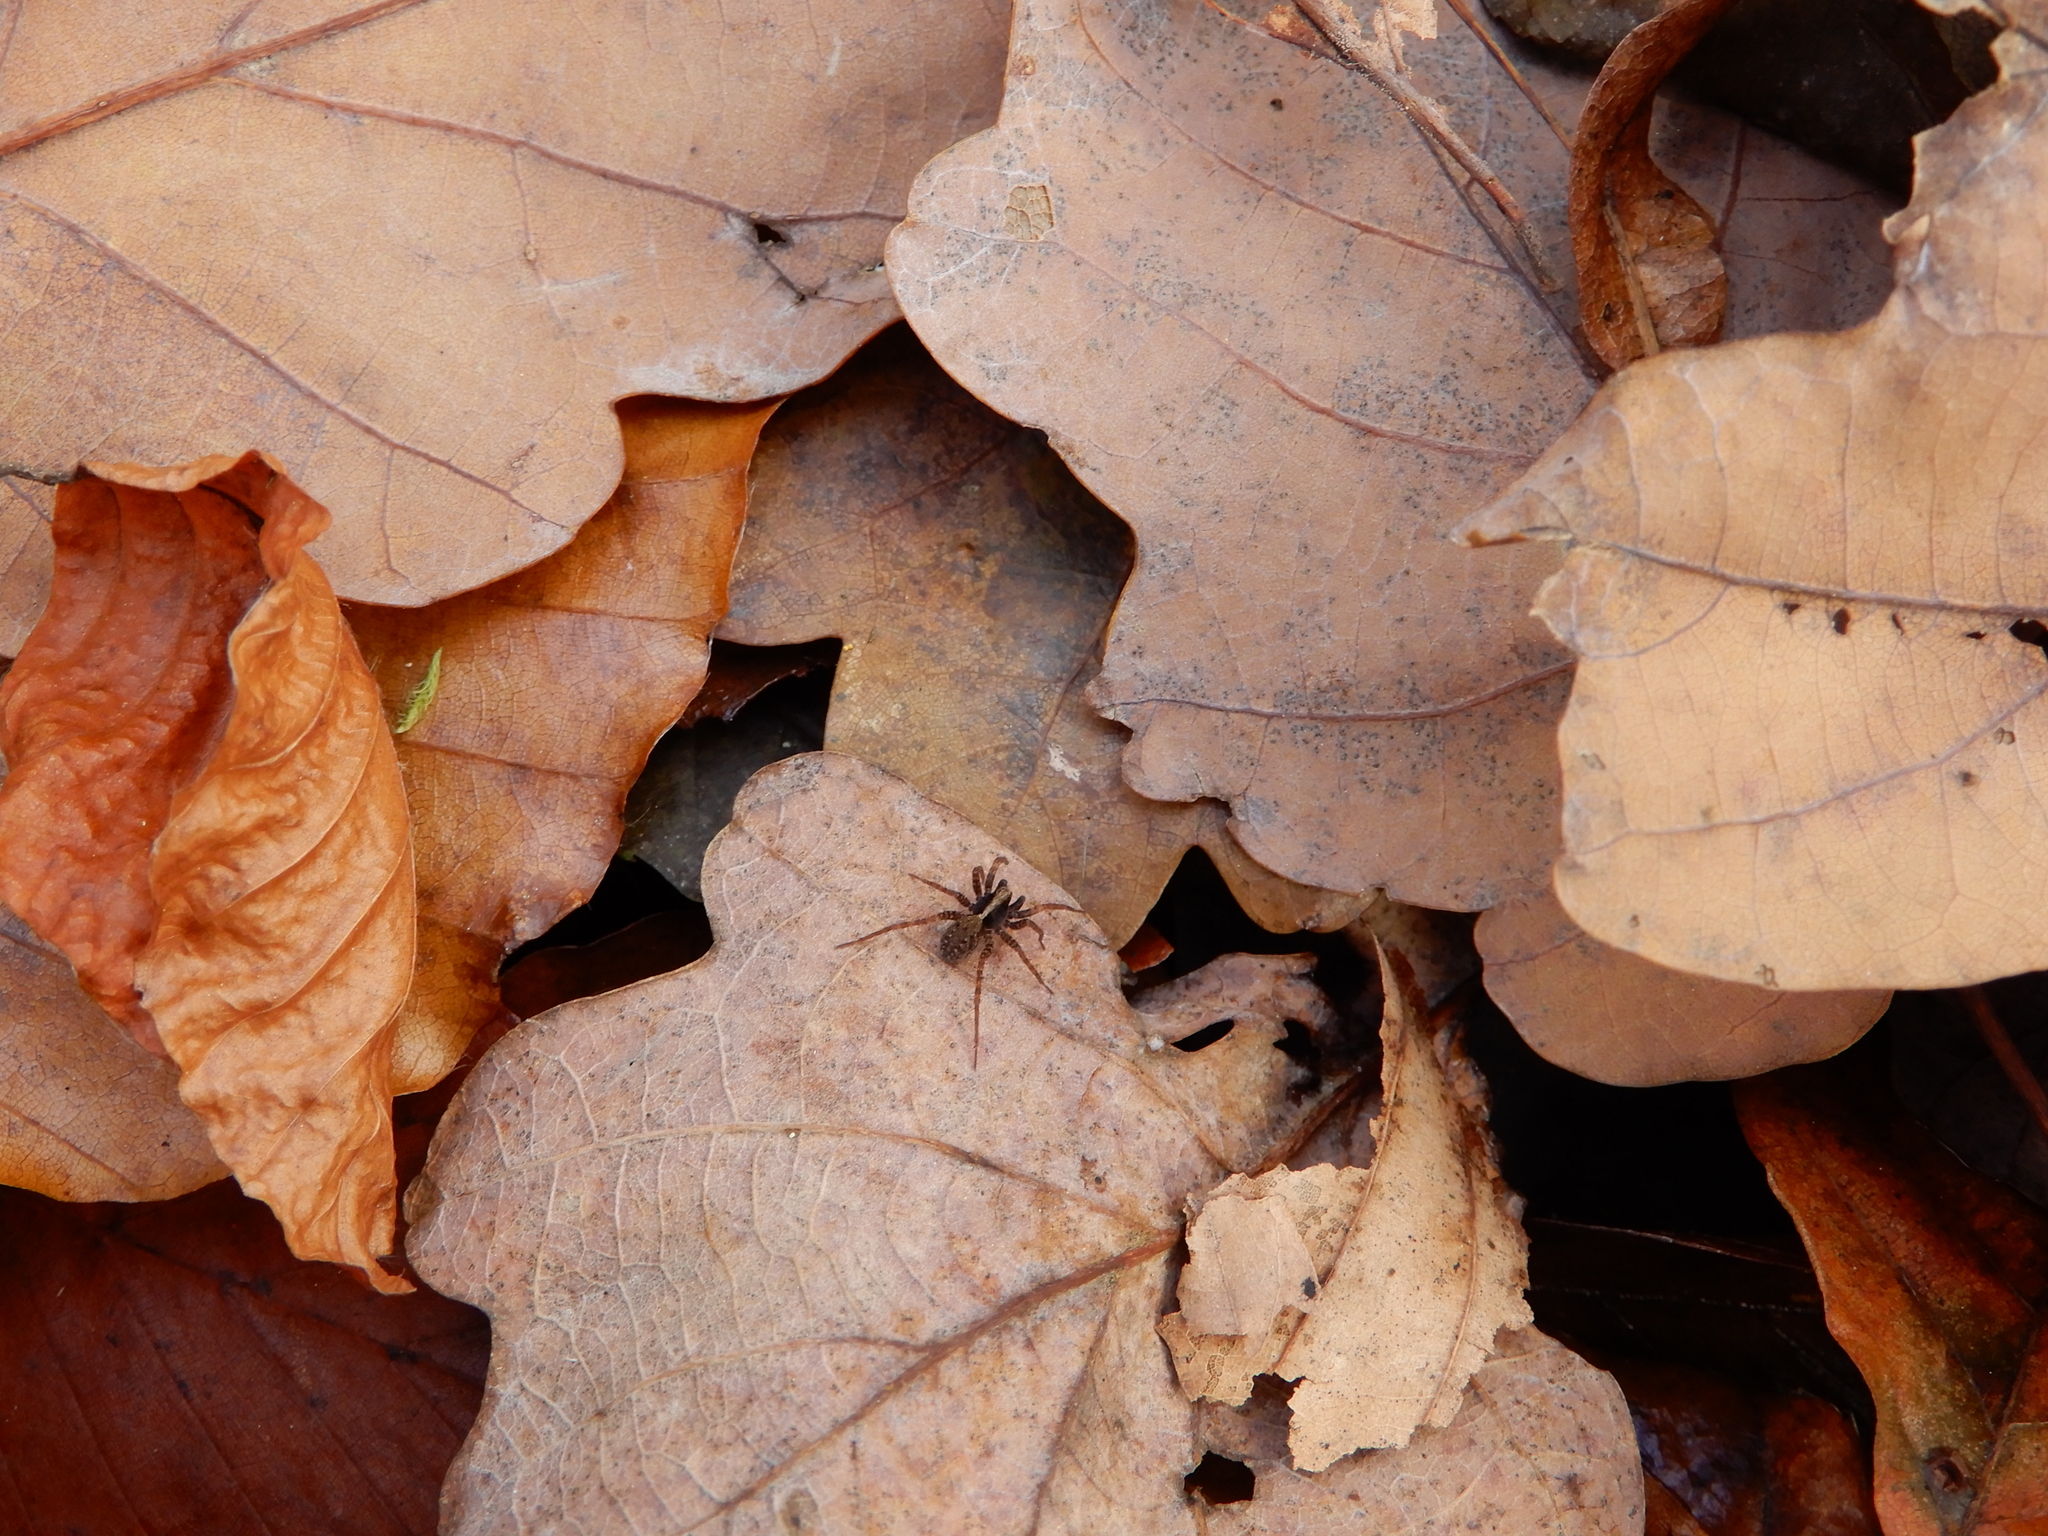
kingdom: Animalia
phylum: Arthropoda
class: Arachnida
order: Araneae
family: Lycosidae
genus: Pardosa
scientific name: Pardosa
